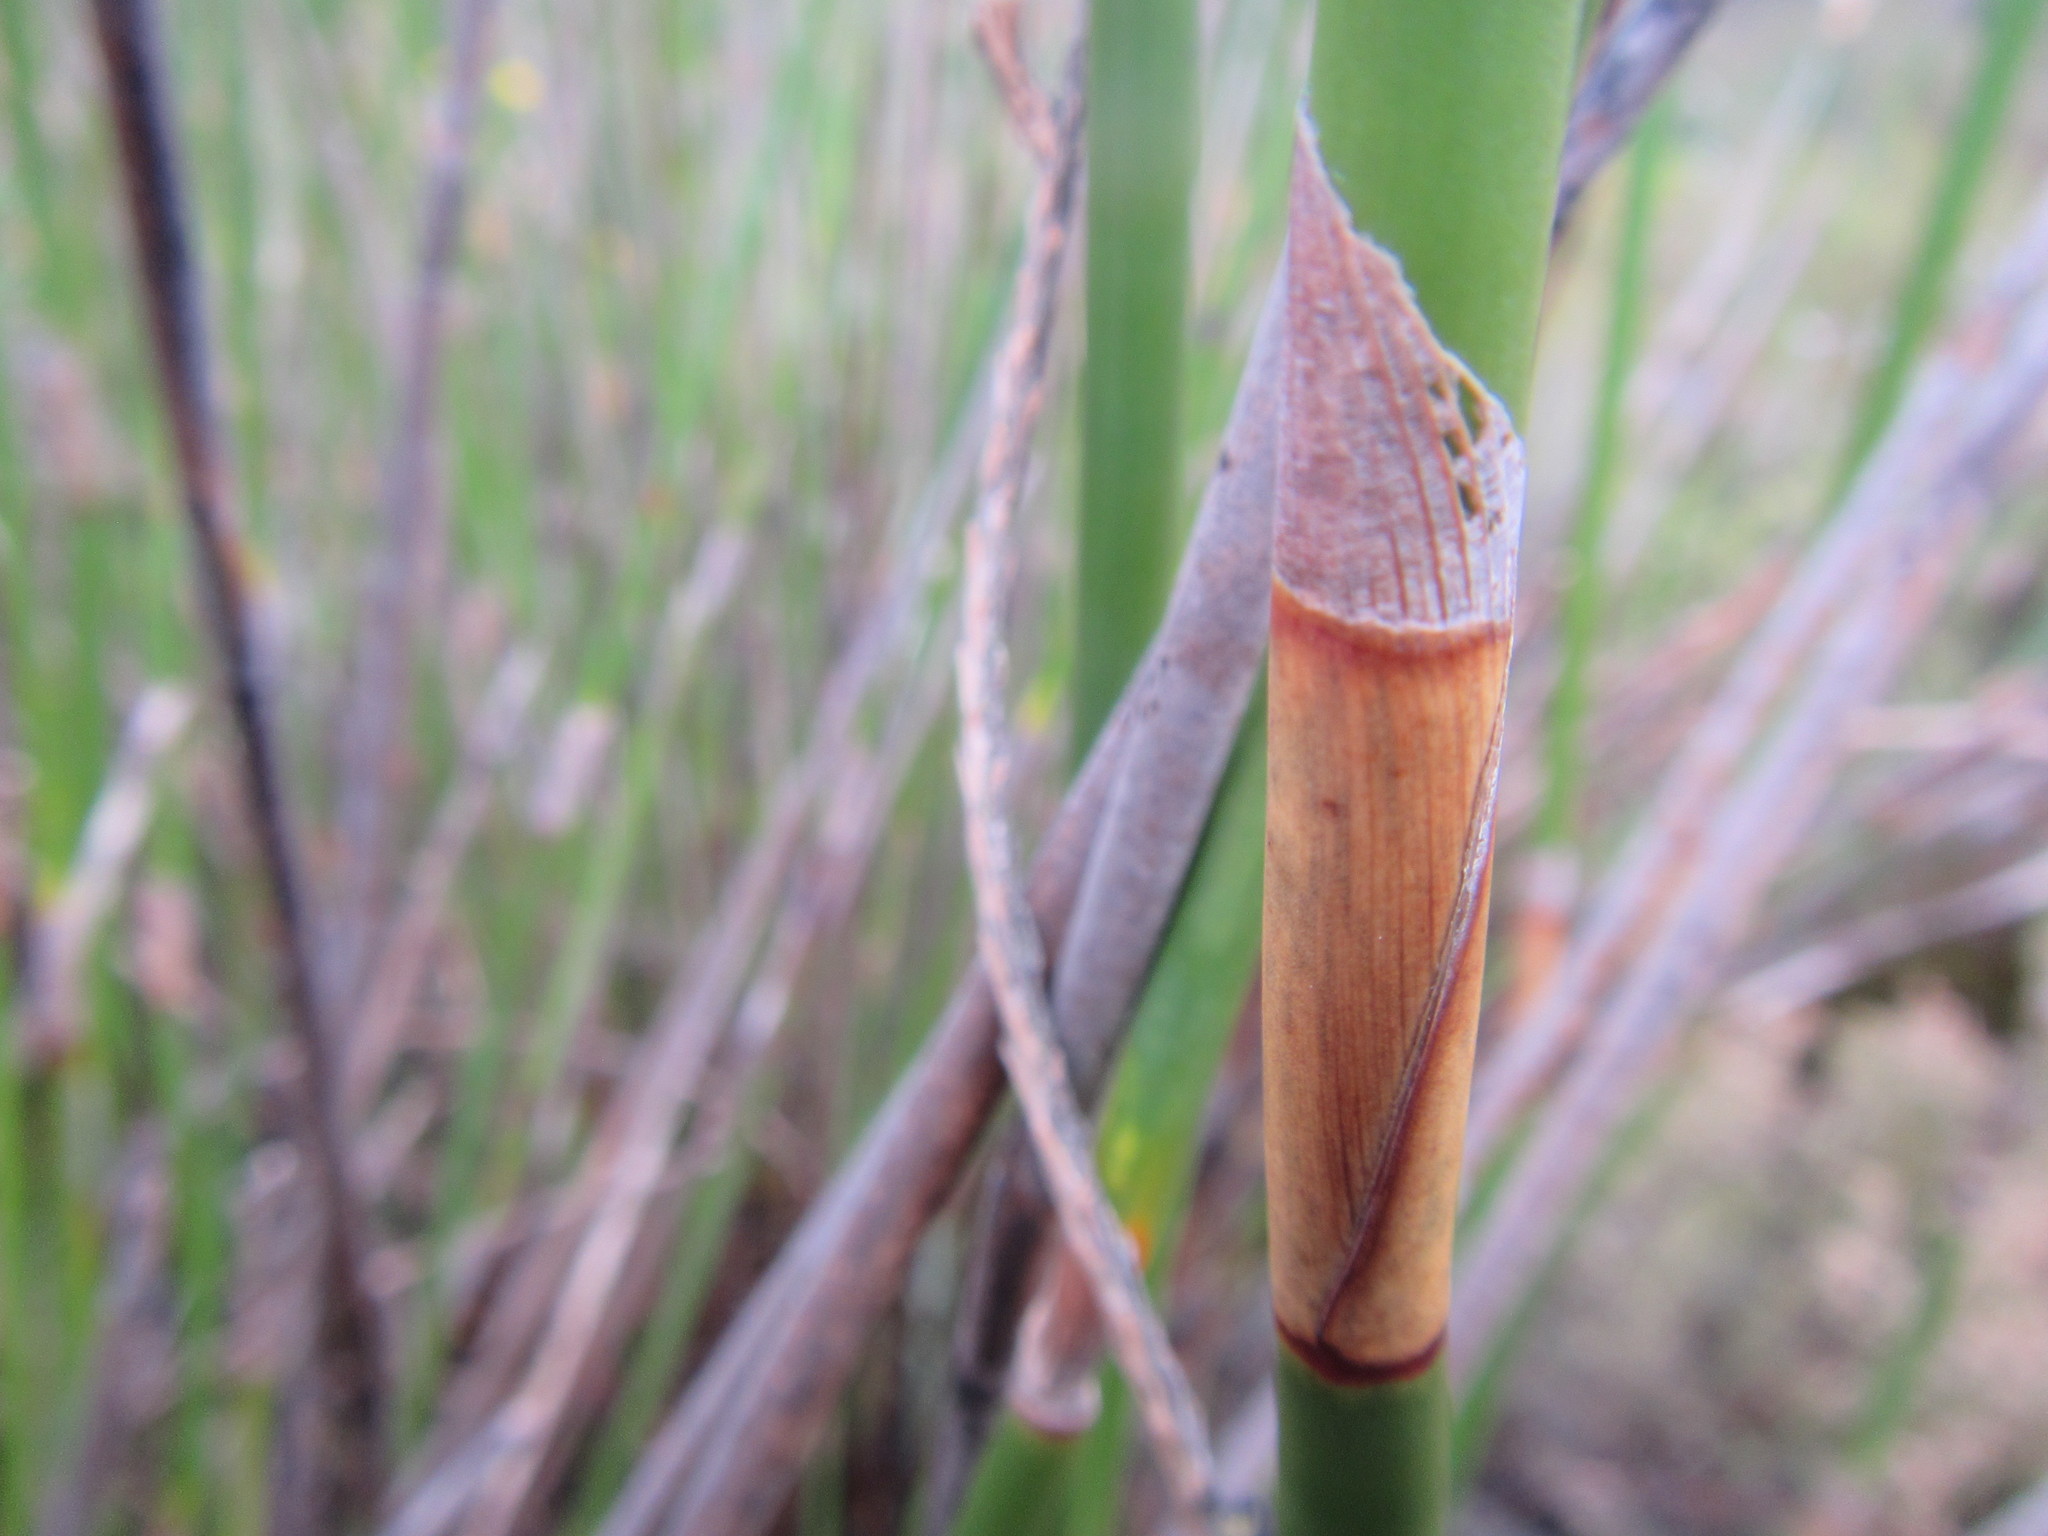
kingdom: Plantae
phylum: Tracheophyta
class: Liliopsida
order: Poales
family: Restionaceae
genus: Ceratocaryum
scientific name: Ceratocaryum persistens
